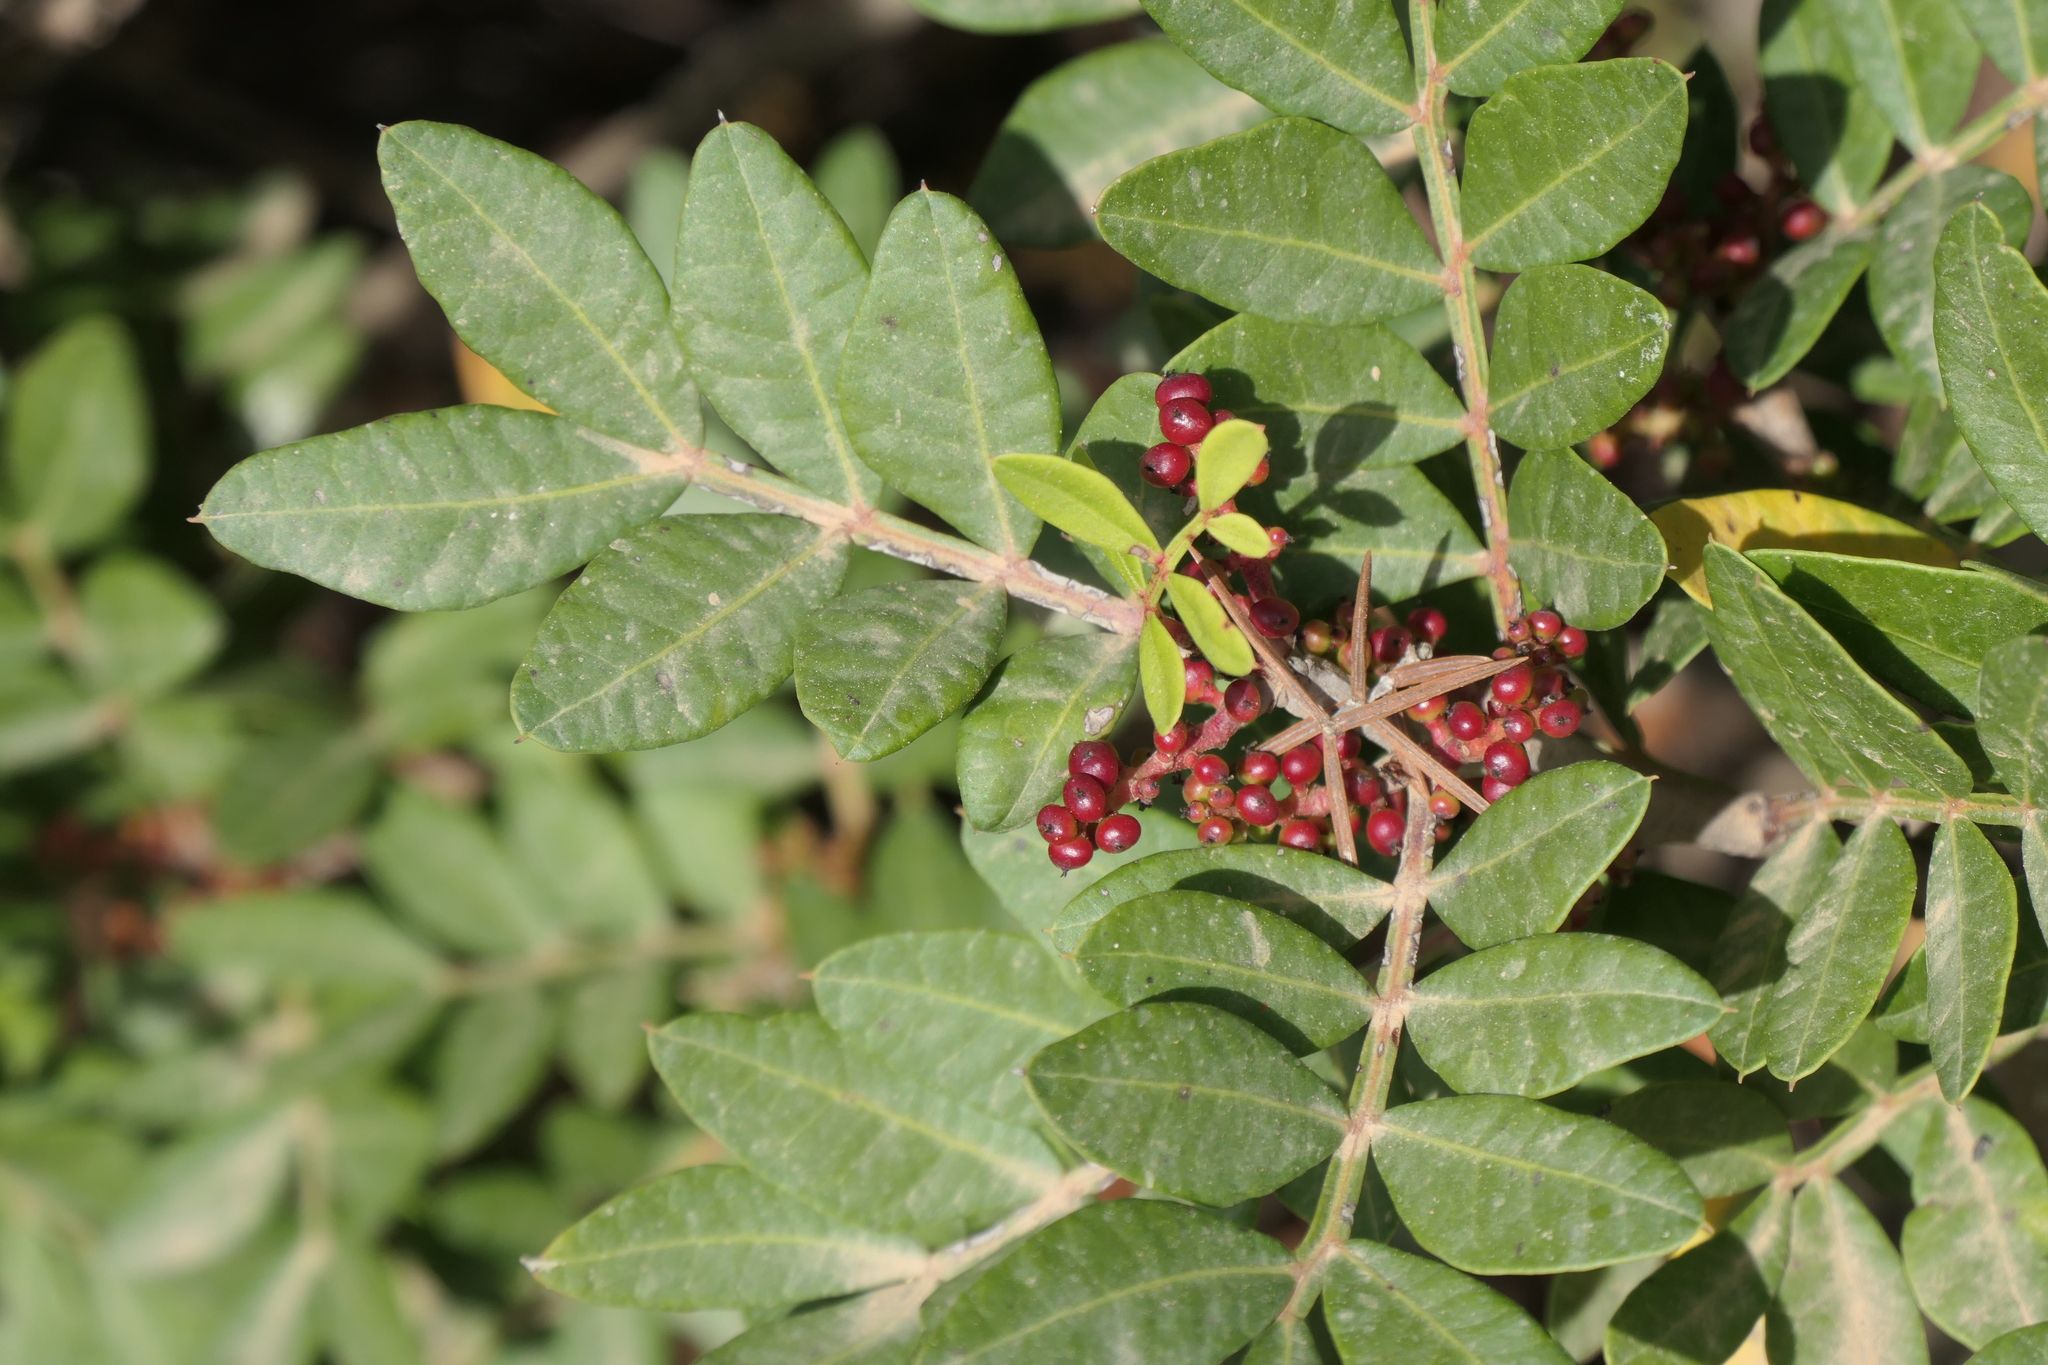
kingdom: Plantae
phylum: Tracheophyta
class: Magnoliopsida
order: Sapindales
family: Anacardiaceae
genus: Pistacia
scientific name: Pistacia lentiscus
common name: Lentisk
